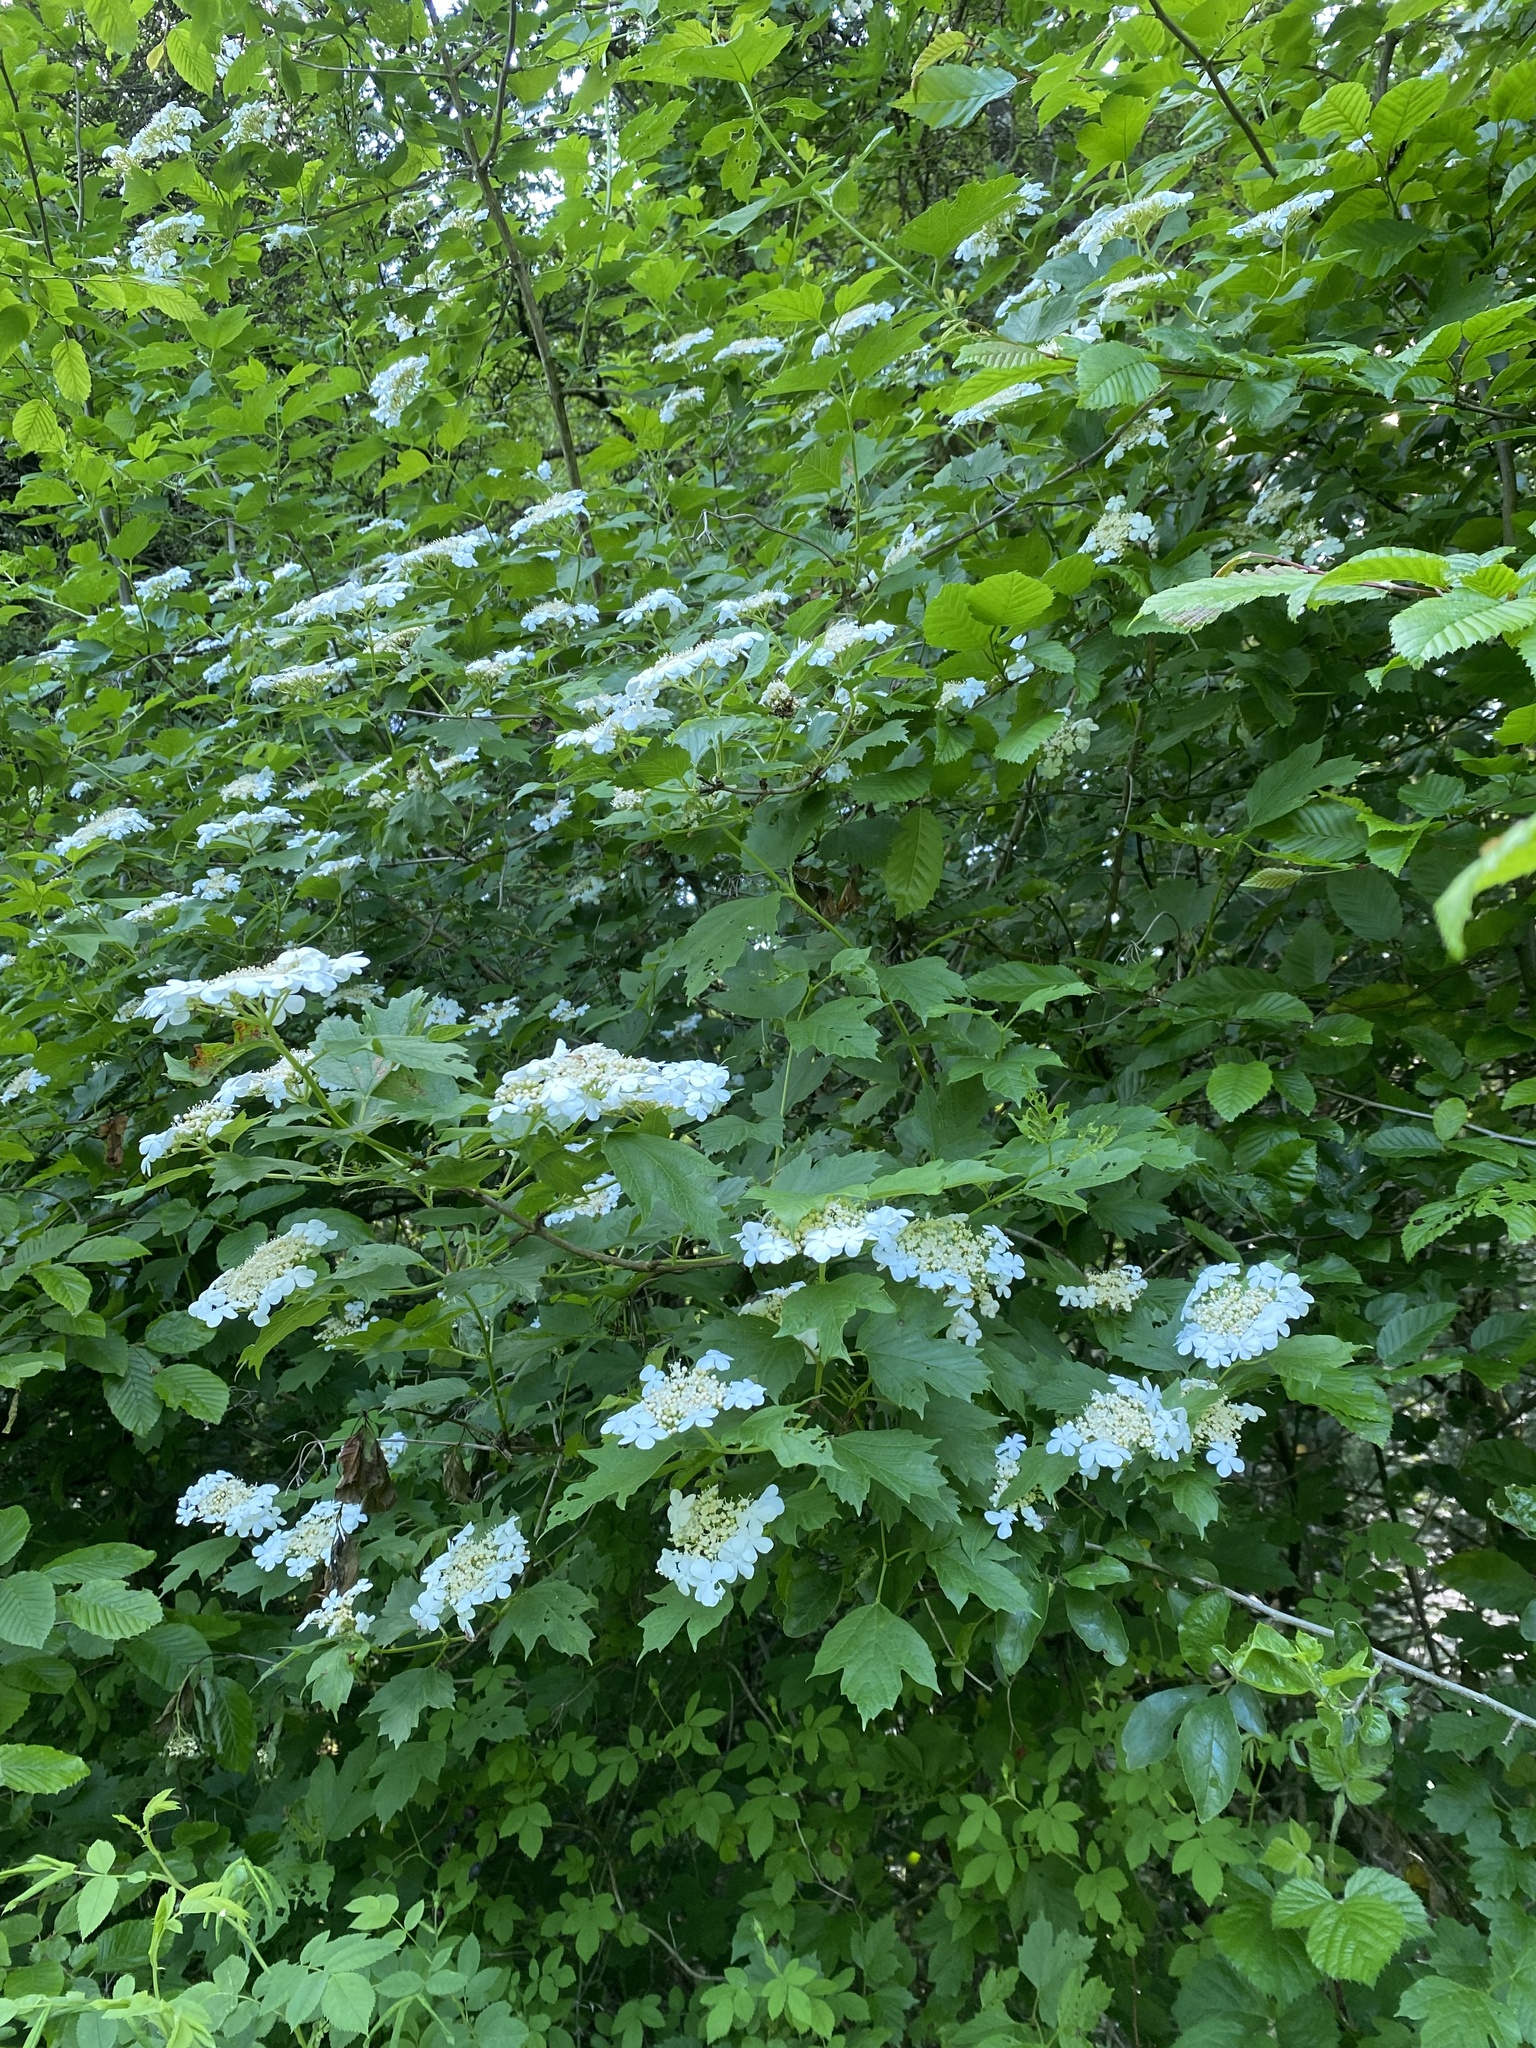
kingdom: Plantae
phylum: Tracheophyta
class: Magnoliopsida
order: Dipsacales
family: Viburnaceae
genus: Viburnum
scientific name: Viburnum opulus
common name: Guelder-rose
